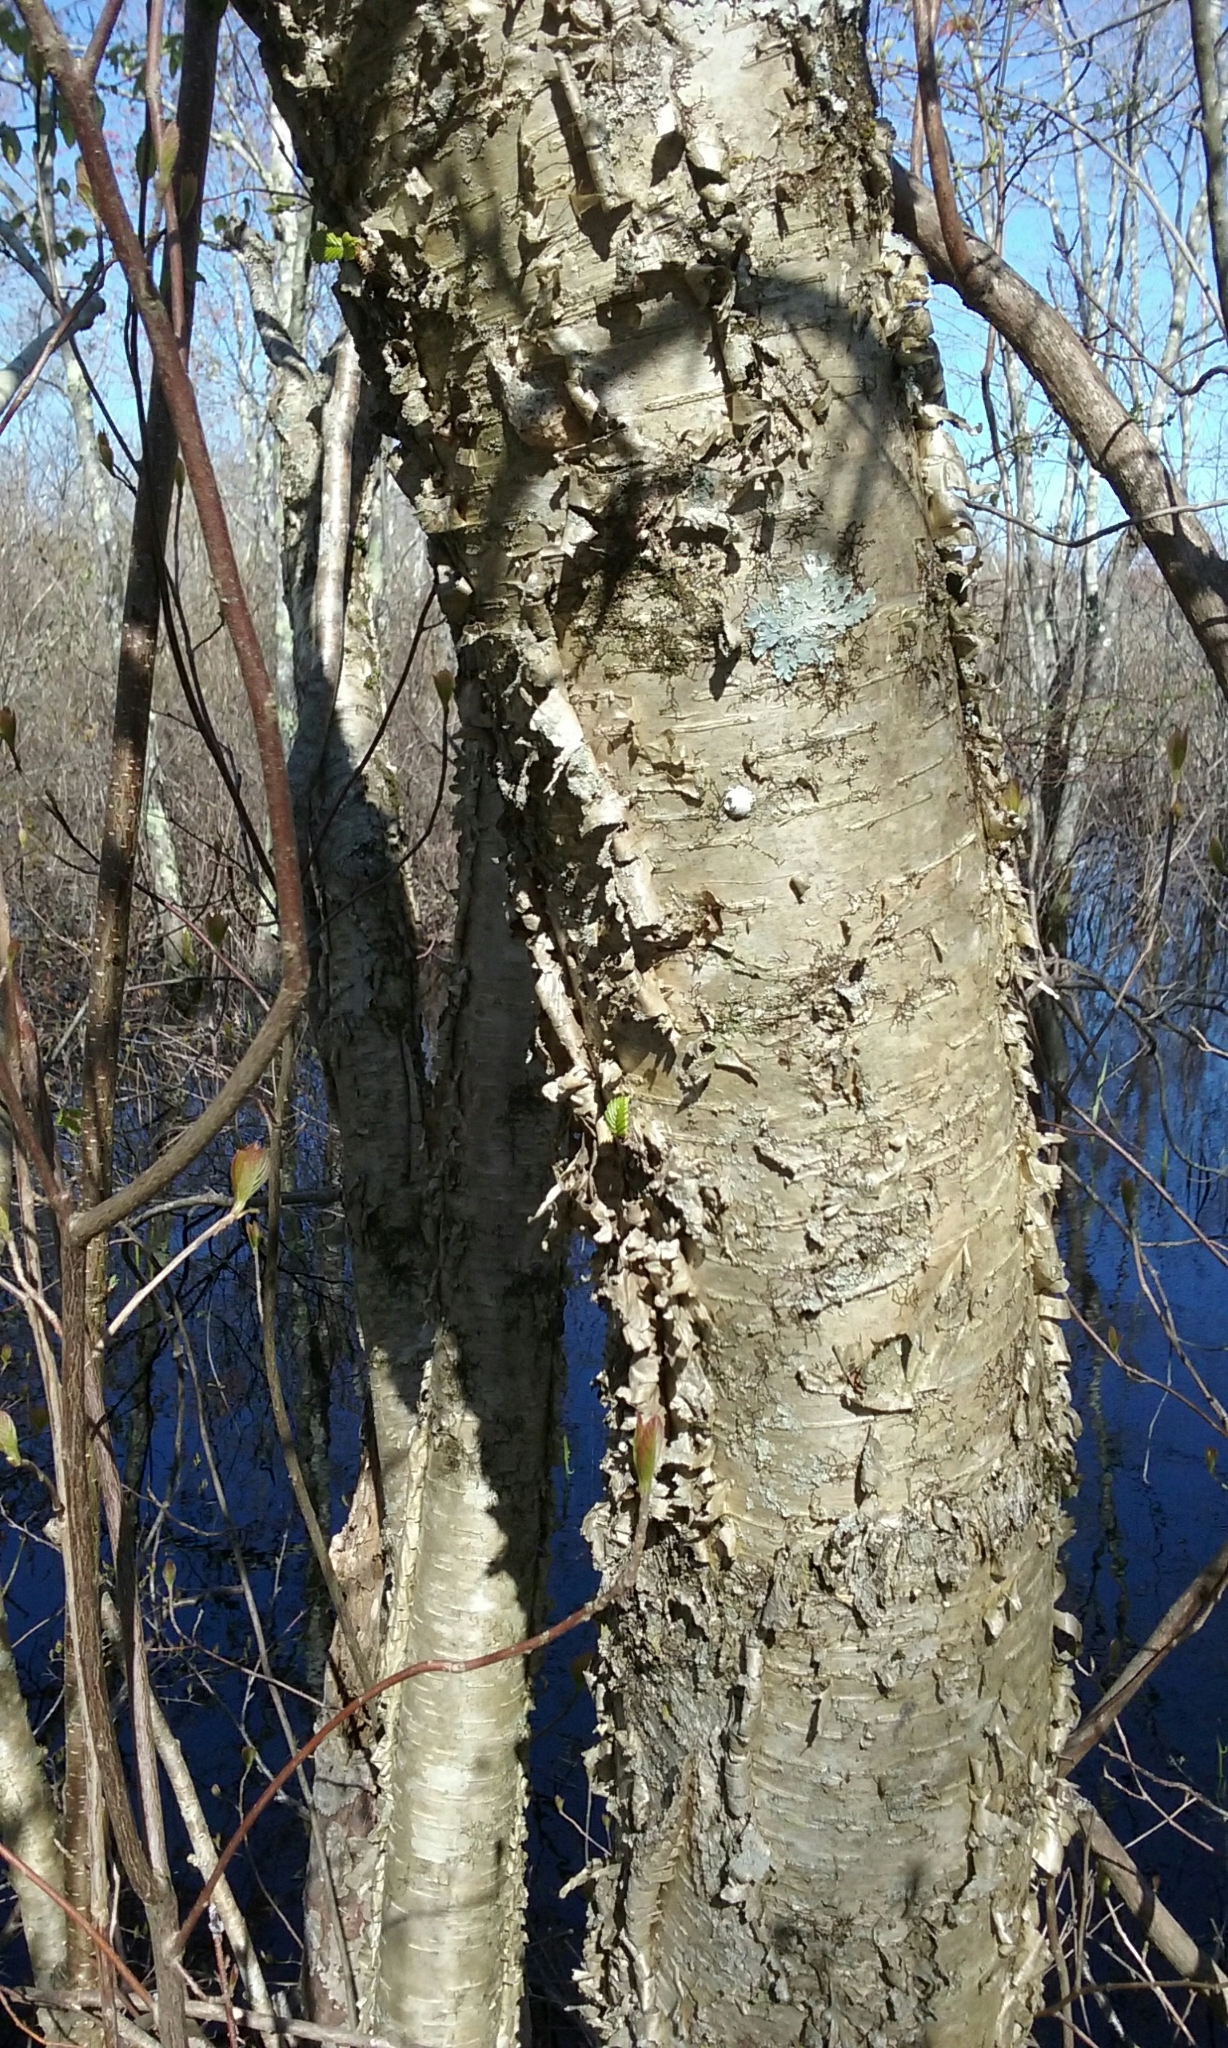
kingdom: Plantae
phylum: Tracheophyta
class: Magnoliopsida
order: Fagales
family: Betulaceae
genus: Betula
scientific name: Betula alleghaniensis
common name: Yellow birch
